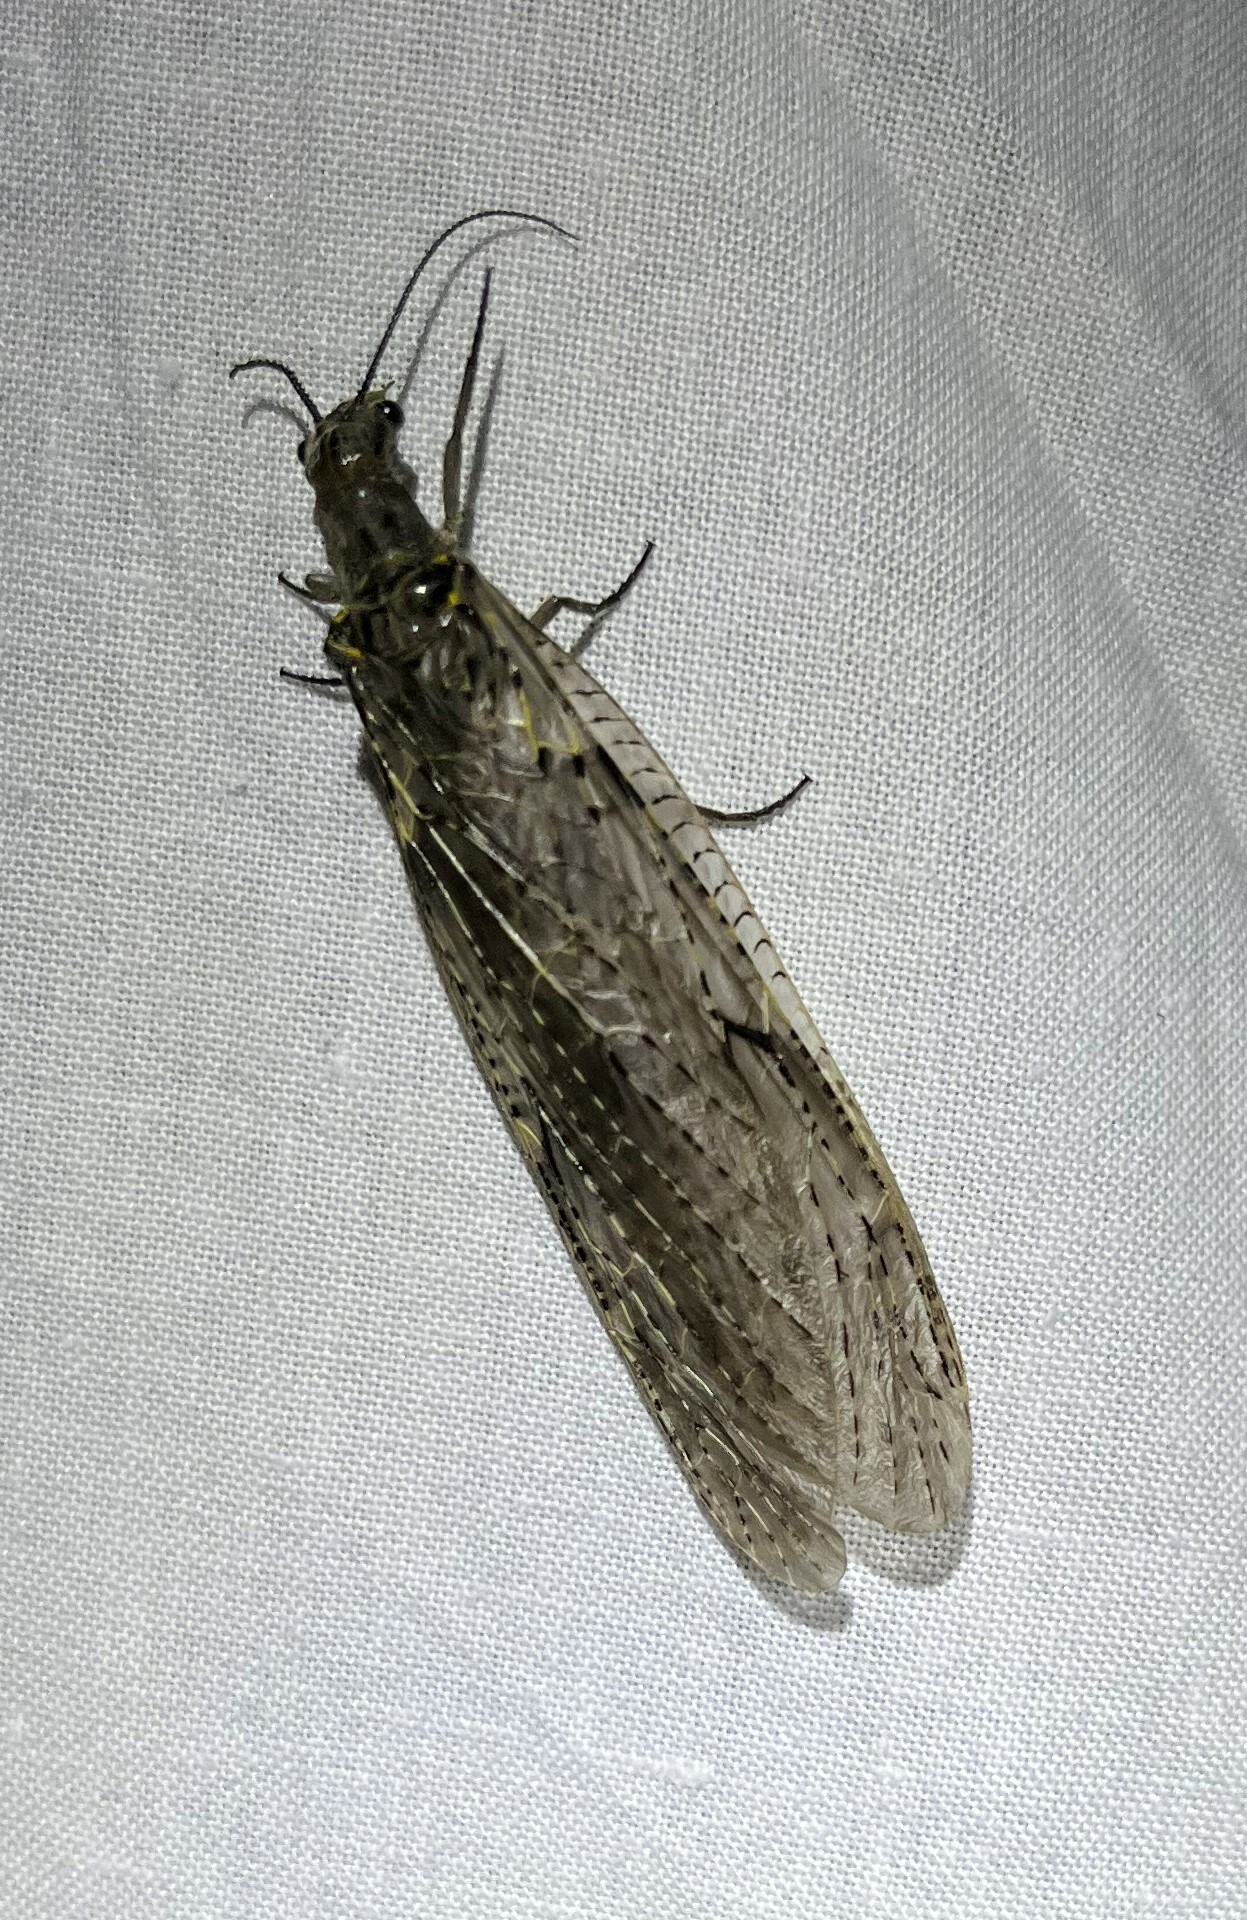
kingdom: Animalia
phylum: Arthropoda
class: Insecta
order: Megaloptera
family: Corydalidae
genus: Chauliodes
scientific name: Chauliodes rastricornis
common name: Spring fishfly
